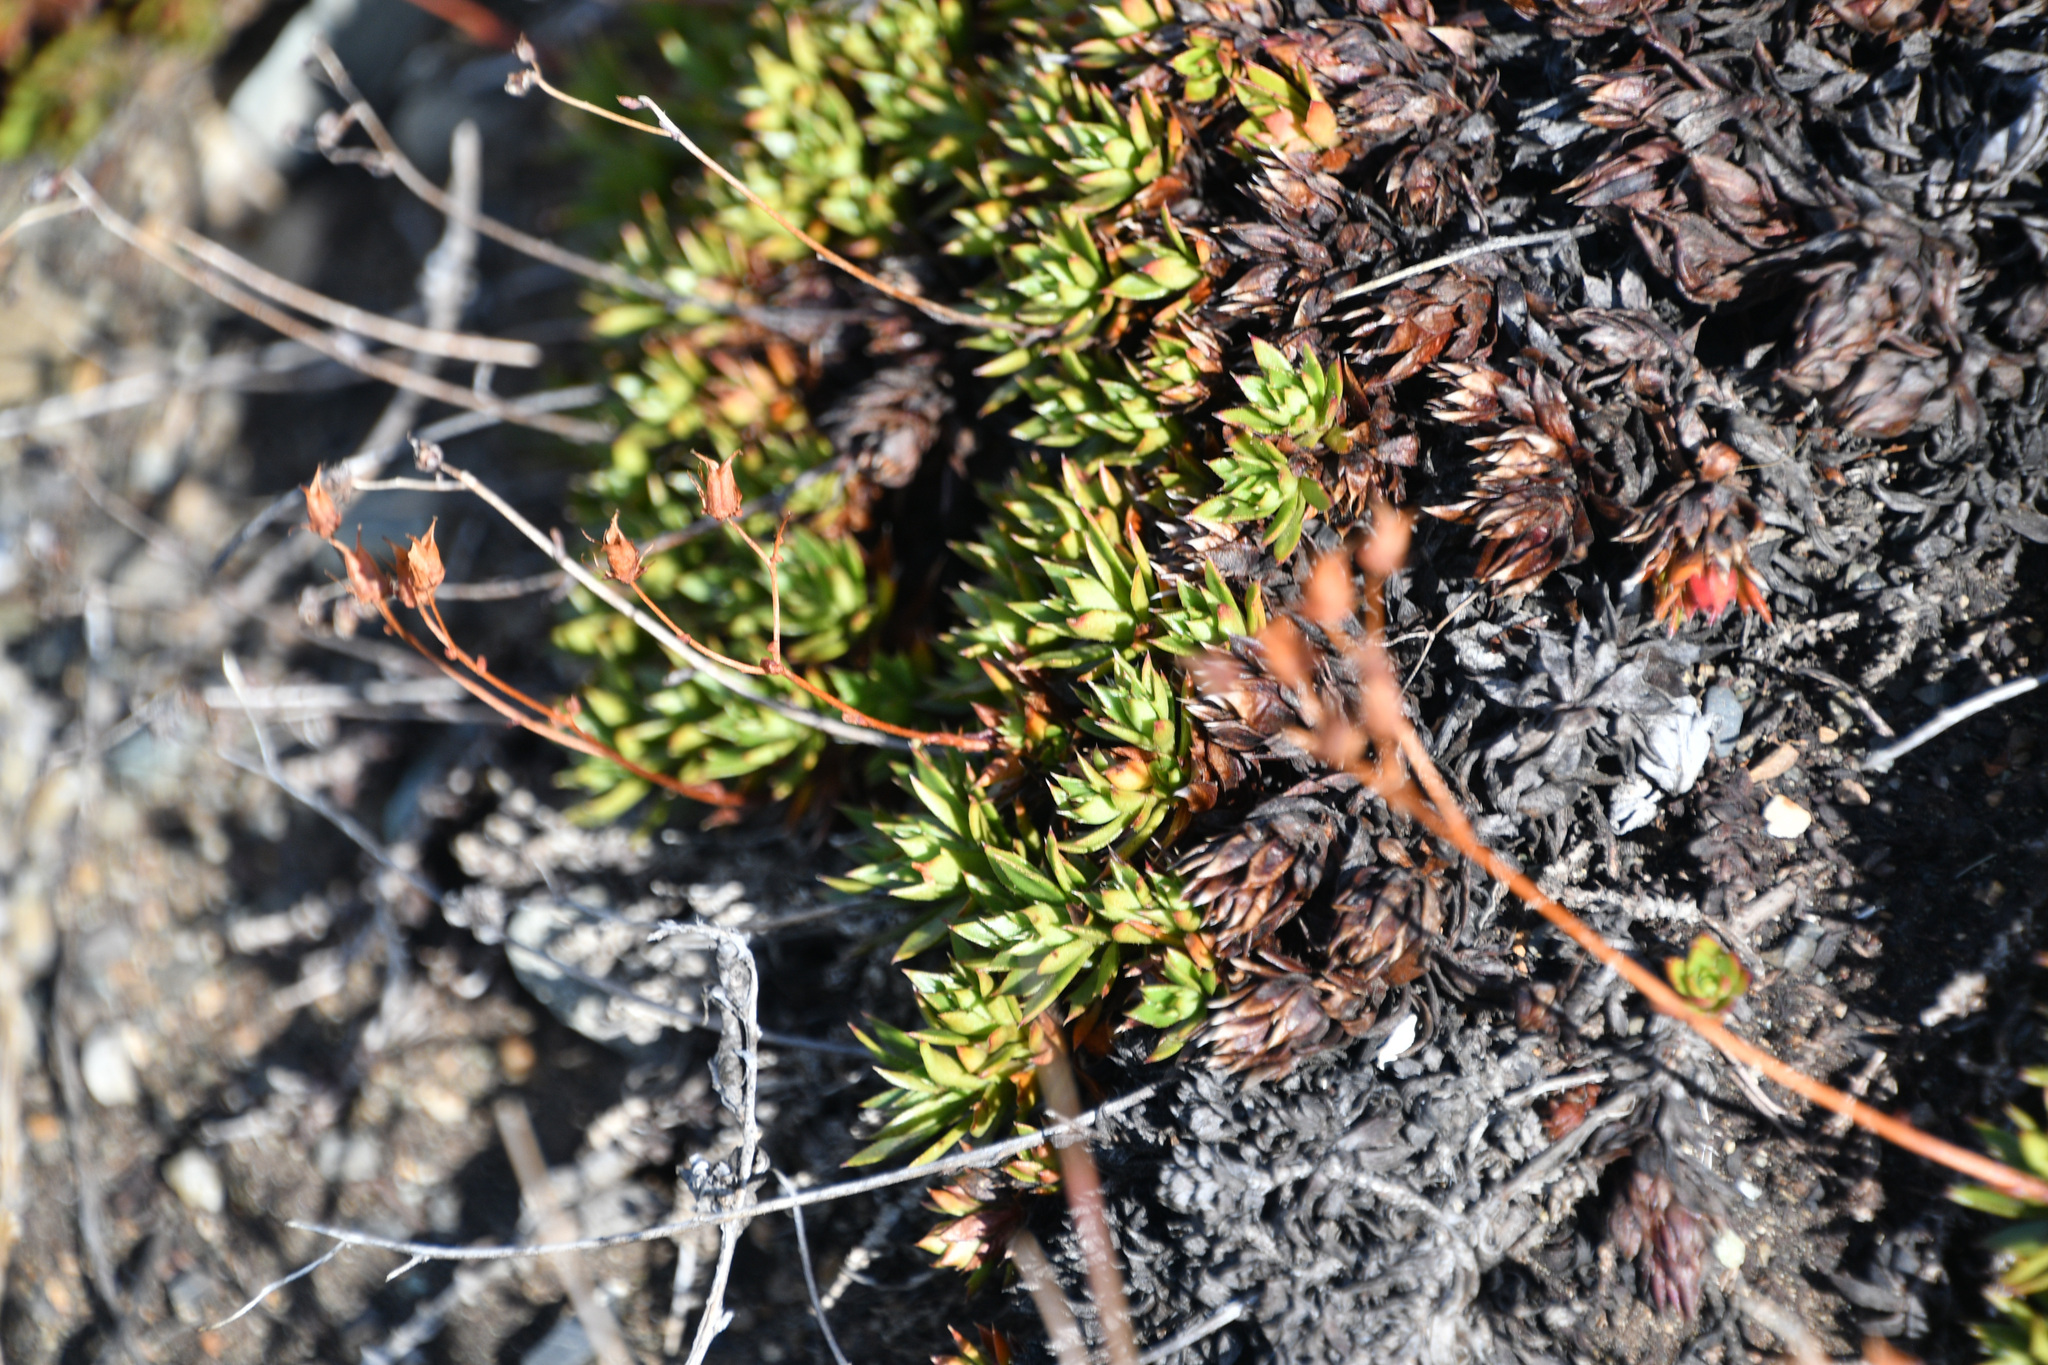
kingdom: Plantae
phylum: Tracheophyta
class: Magnoliopsida
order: Saxifragales
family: Saxifragaceae
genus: Saxifraga
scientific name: Saxifraga tricuspidata
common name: Prickly saxifrage
